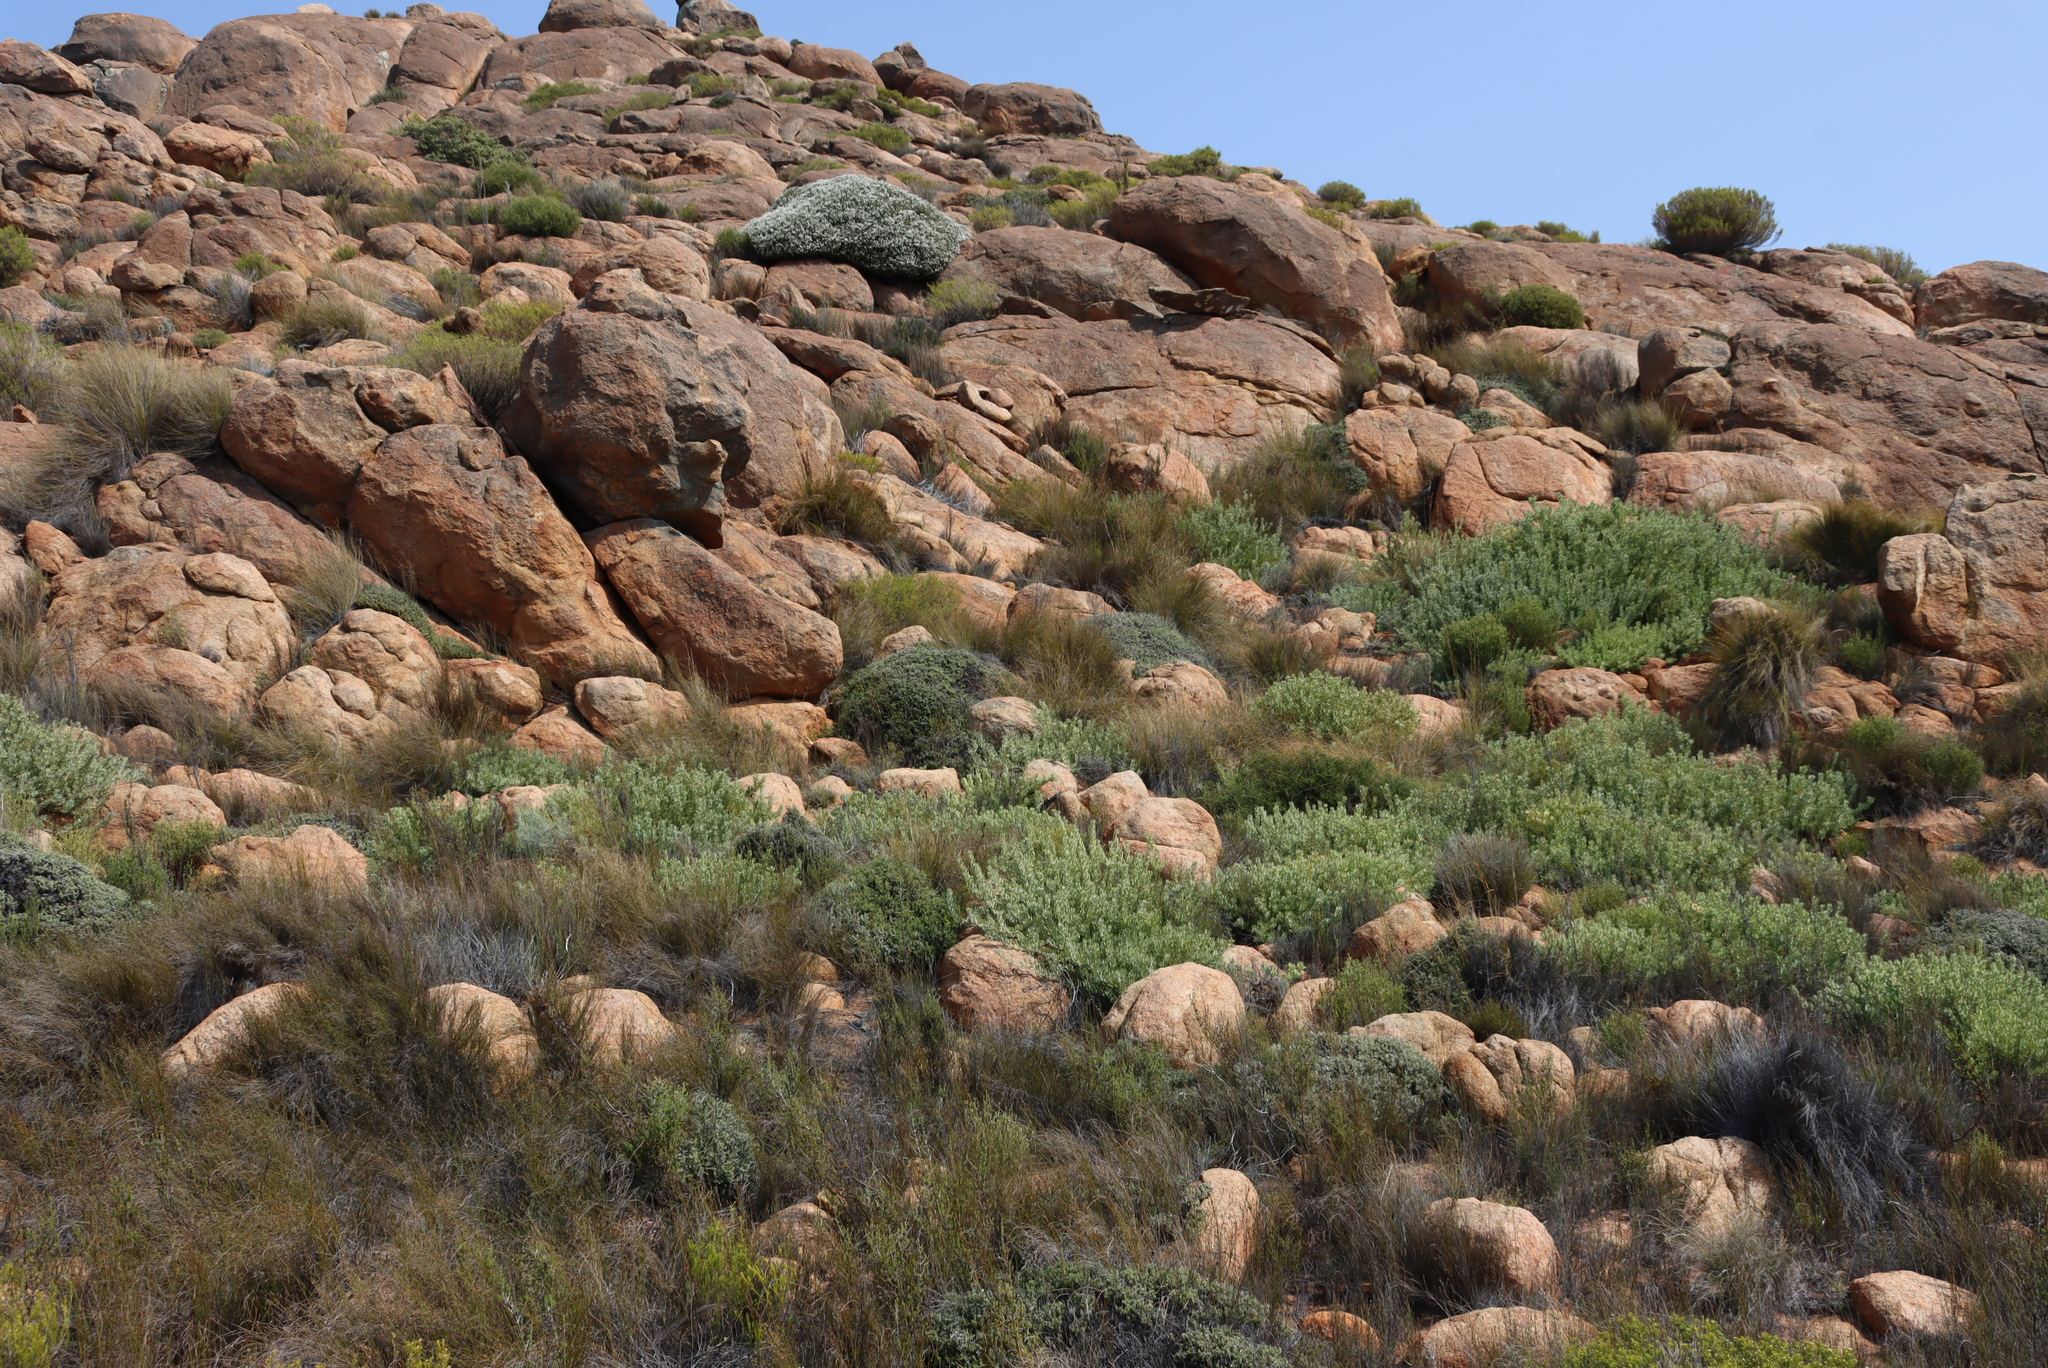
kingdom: Plantae
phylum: Tracheophyta
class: Magnoliopsida
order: Proteales
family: Proteaceae
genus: Vexatorella
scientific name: Vexatorella alpina
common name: Kamiesberg vexator
